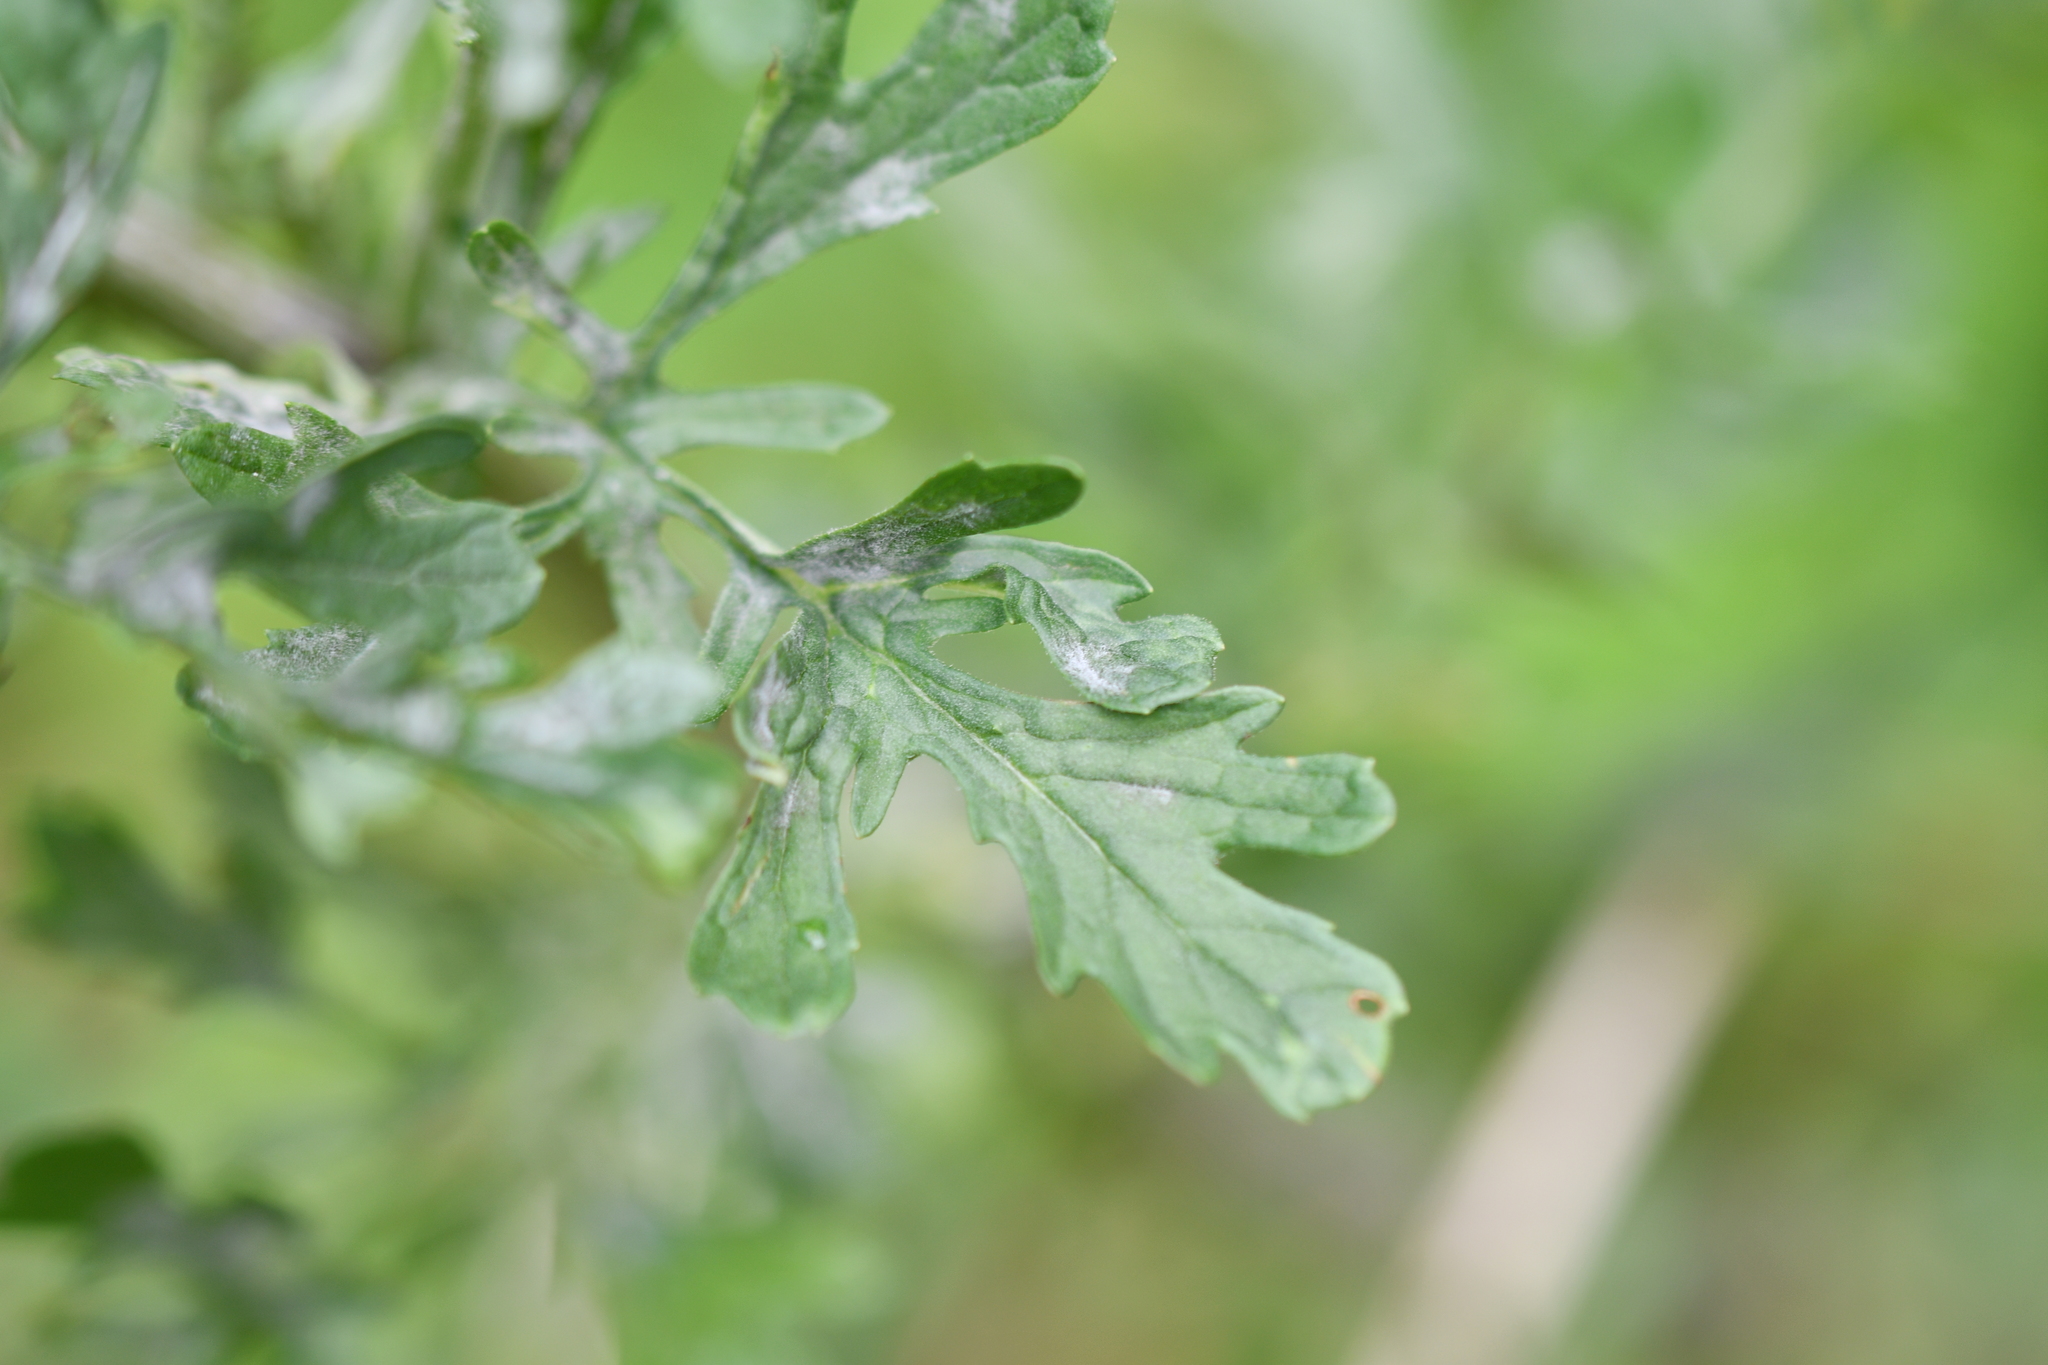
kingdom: Plantae
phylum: Tracheophyta
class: Magnoliopsida
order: Asterales
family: Asteraceae
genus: Jacobaea
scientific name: Jacobaea vulgaris
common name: Stinking willie
